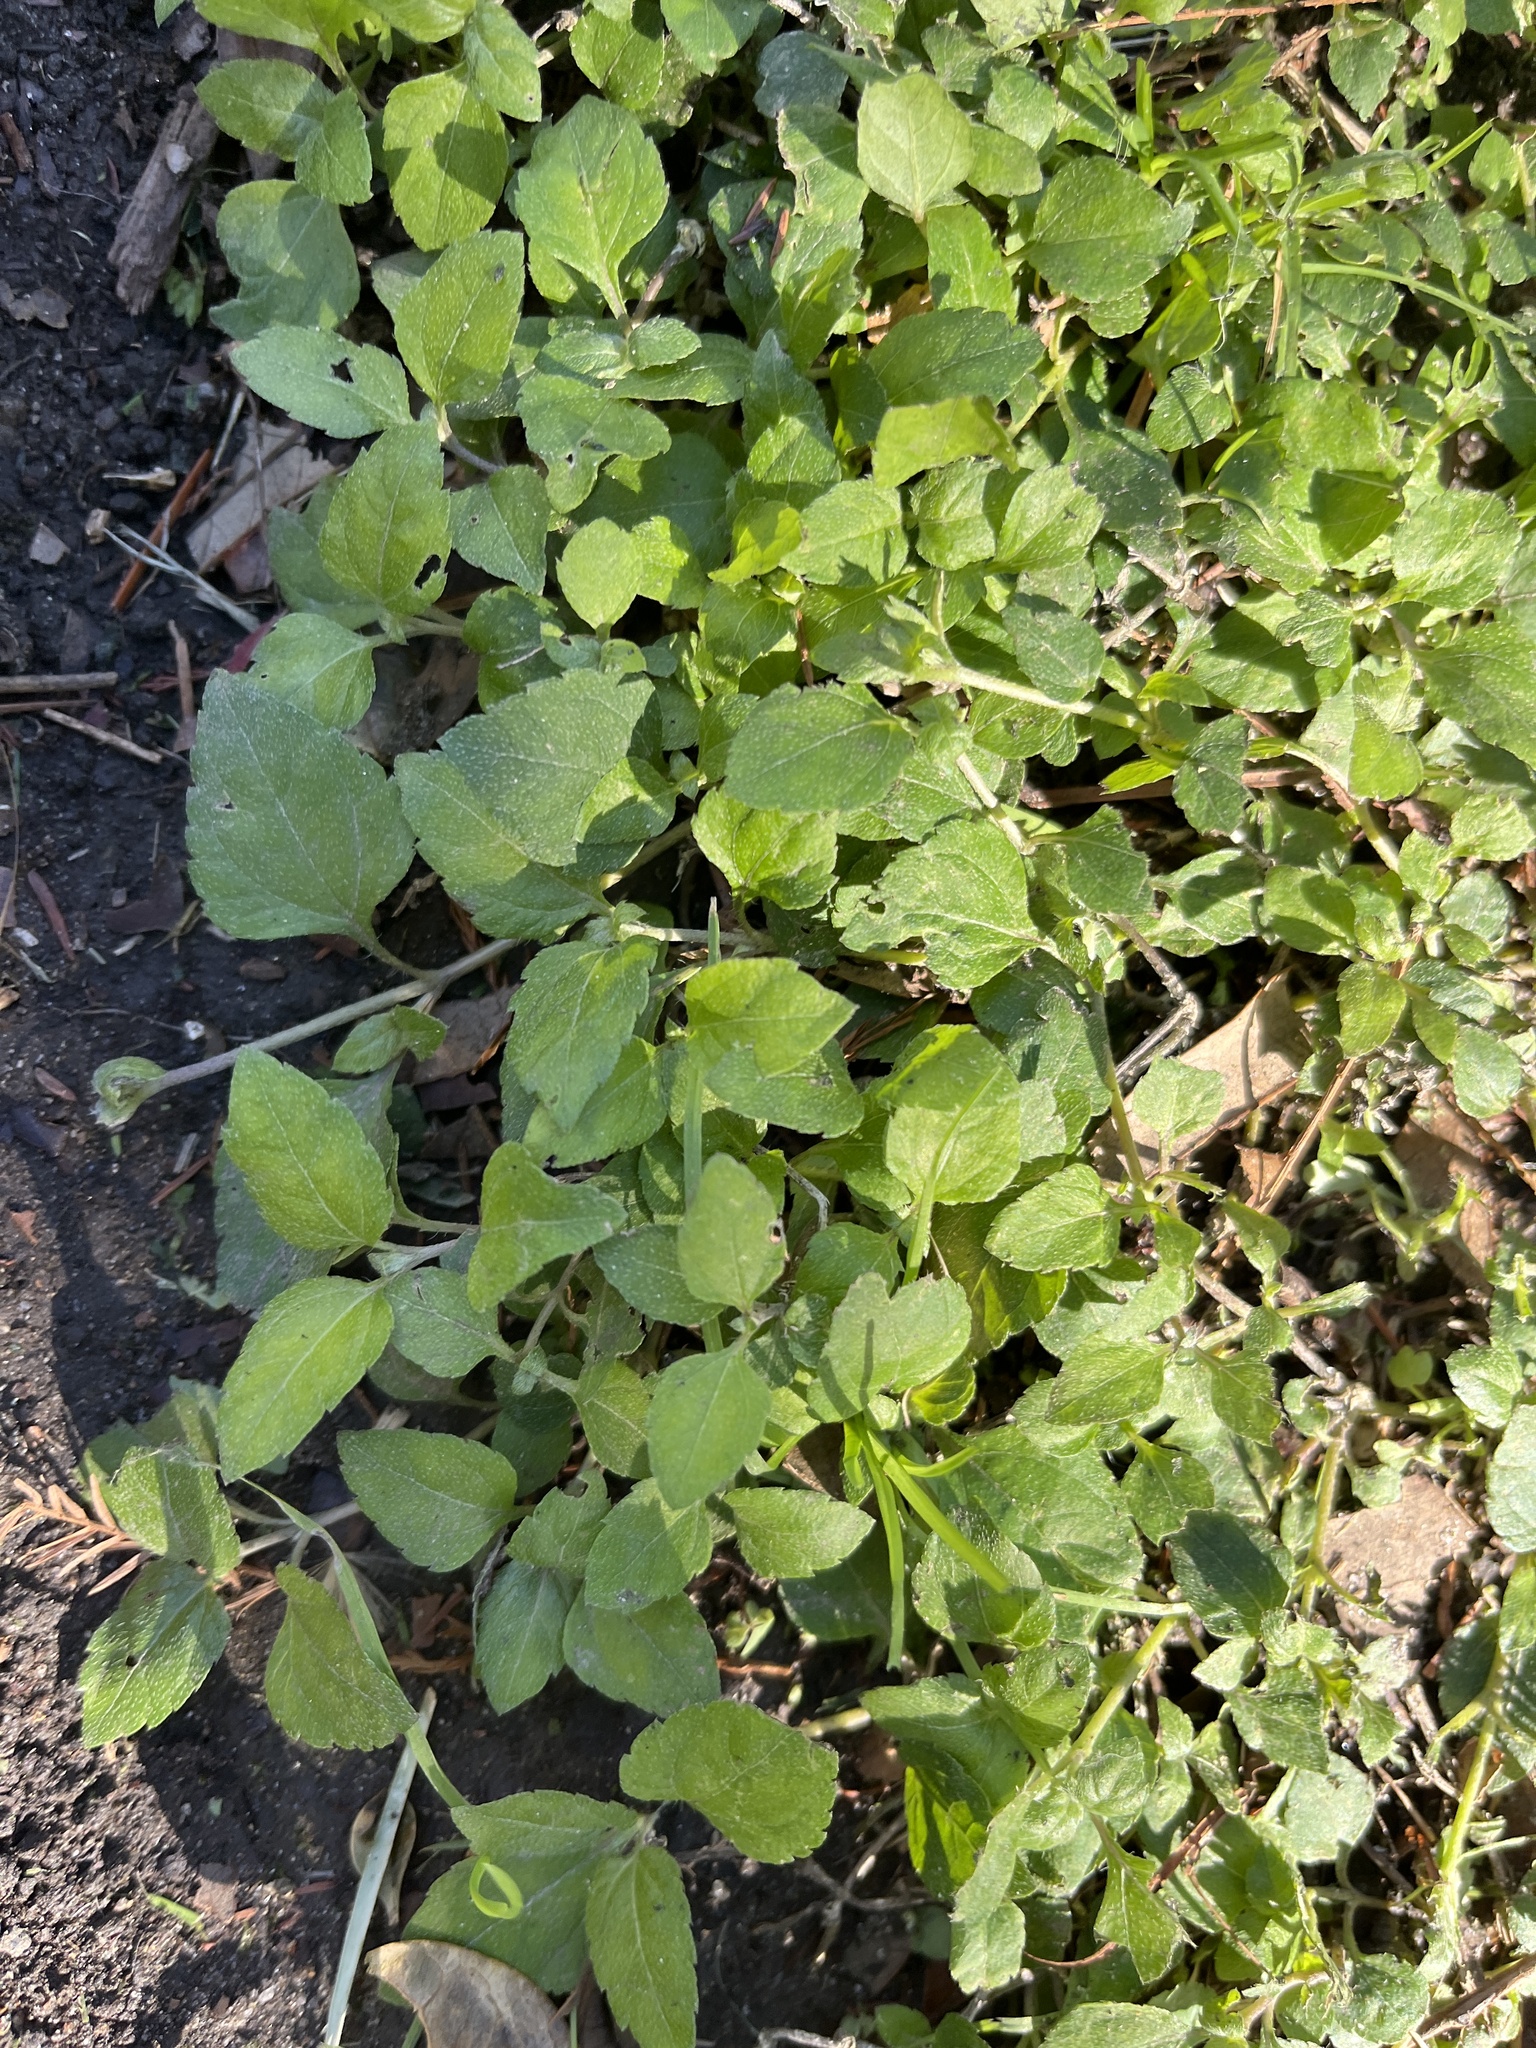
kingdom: Plantae
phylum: Tracheophyta
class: Magnoliopsida
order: Asterales
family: Asteraceae
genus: Calyptocarpus
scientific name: Calyptocarpus vialis
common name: Straggler daisy
